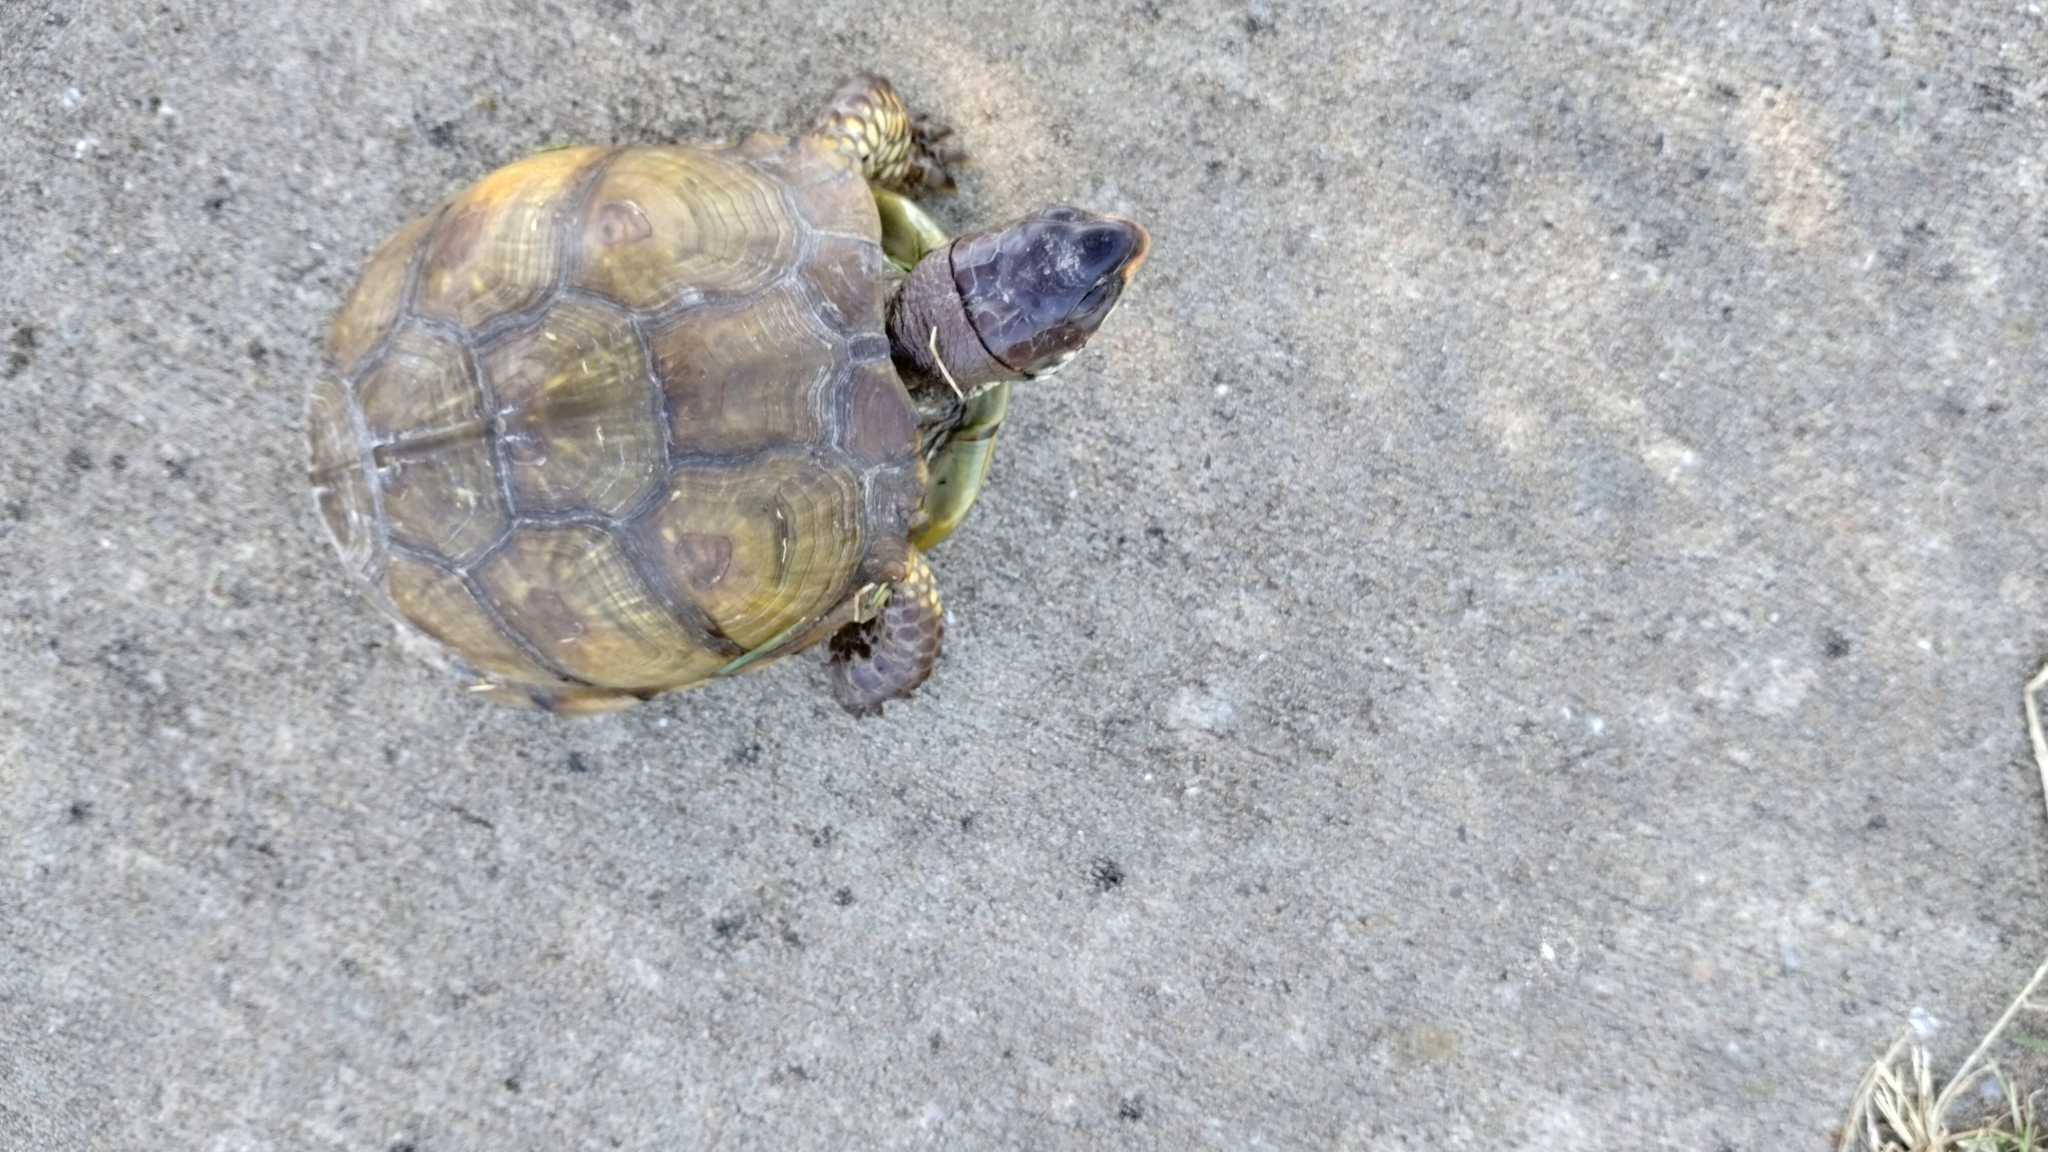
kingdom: Animalia
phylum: Chordata
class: Testudines
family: Emydidae
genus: Terrapene
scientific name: Terrapene carolina
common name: Common box turtle
